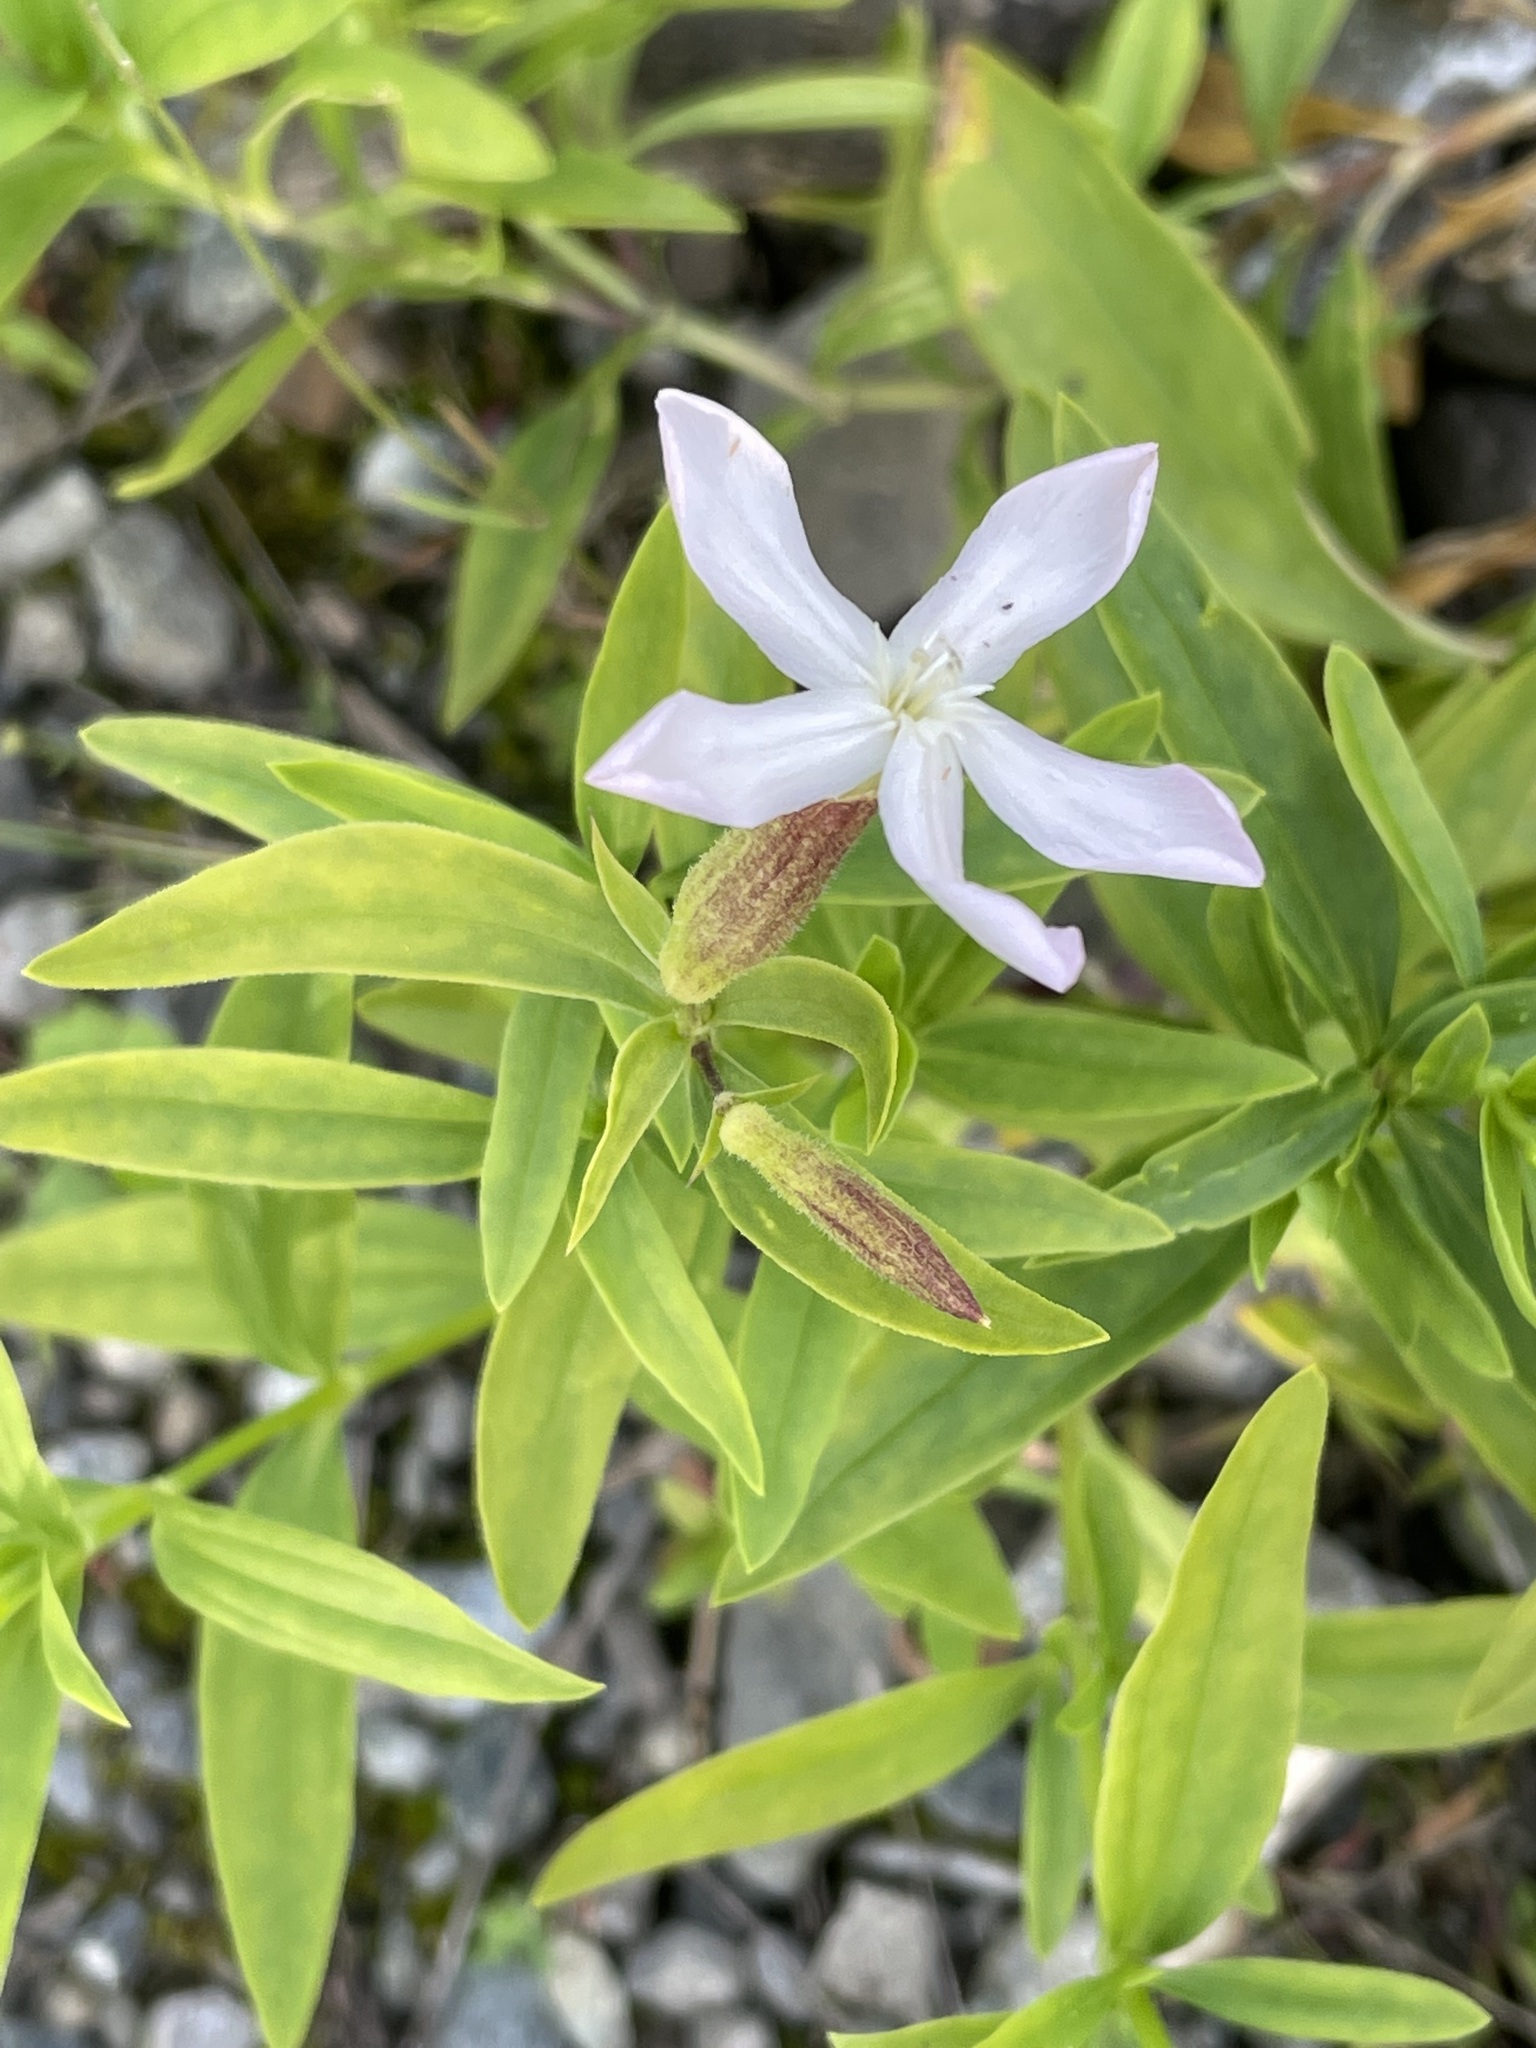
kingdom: Plantae
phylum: Tracheophyta
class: Magnoliopsida
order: Caryophyllales
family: Caryophyllaceae
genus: Saponaria
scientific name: Saponaria officinalis
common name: Soapwort
